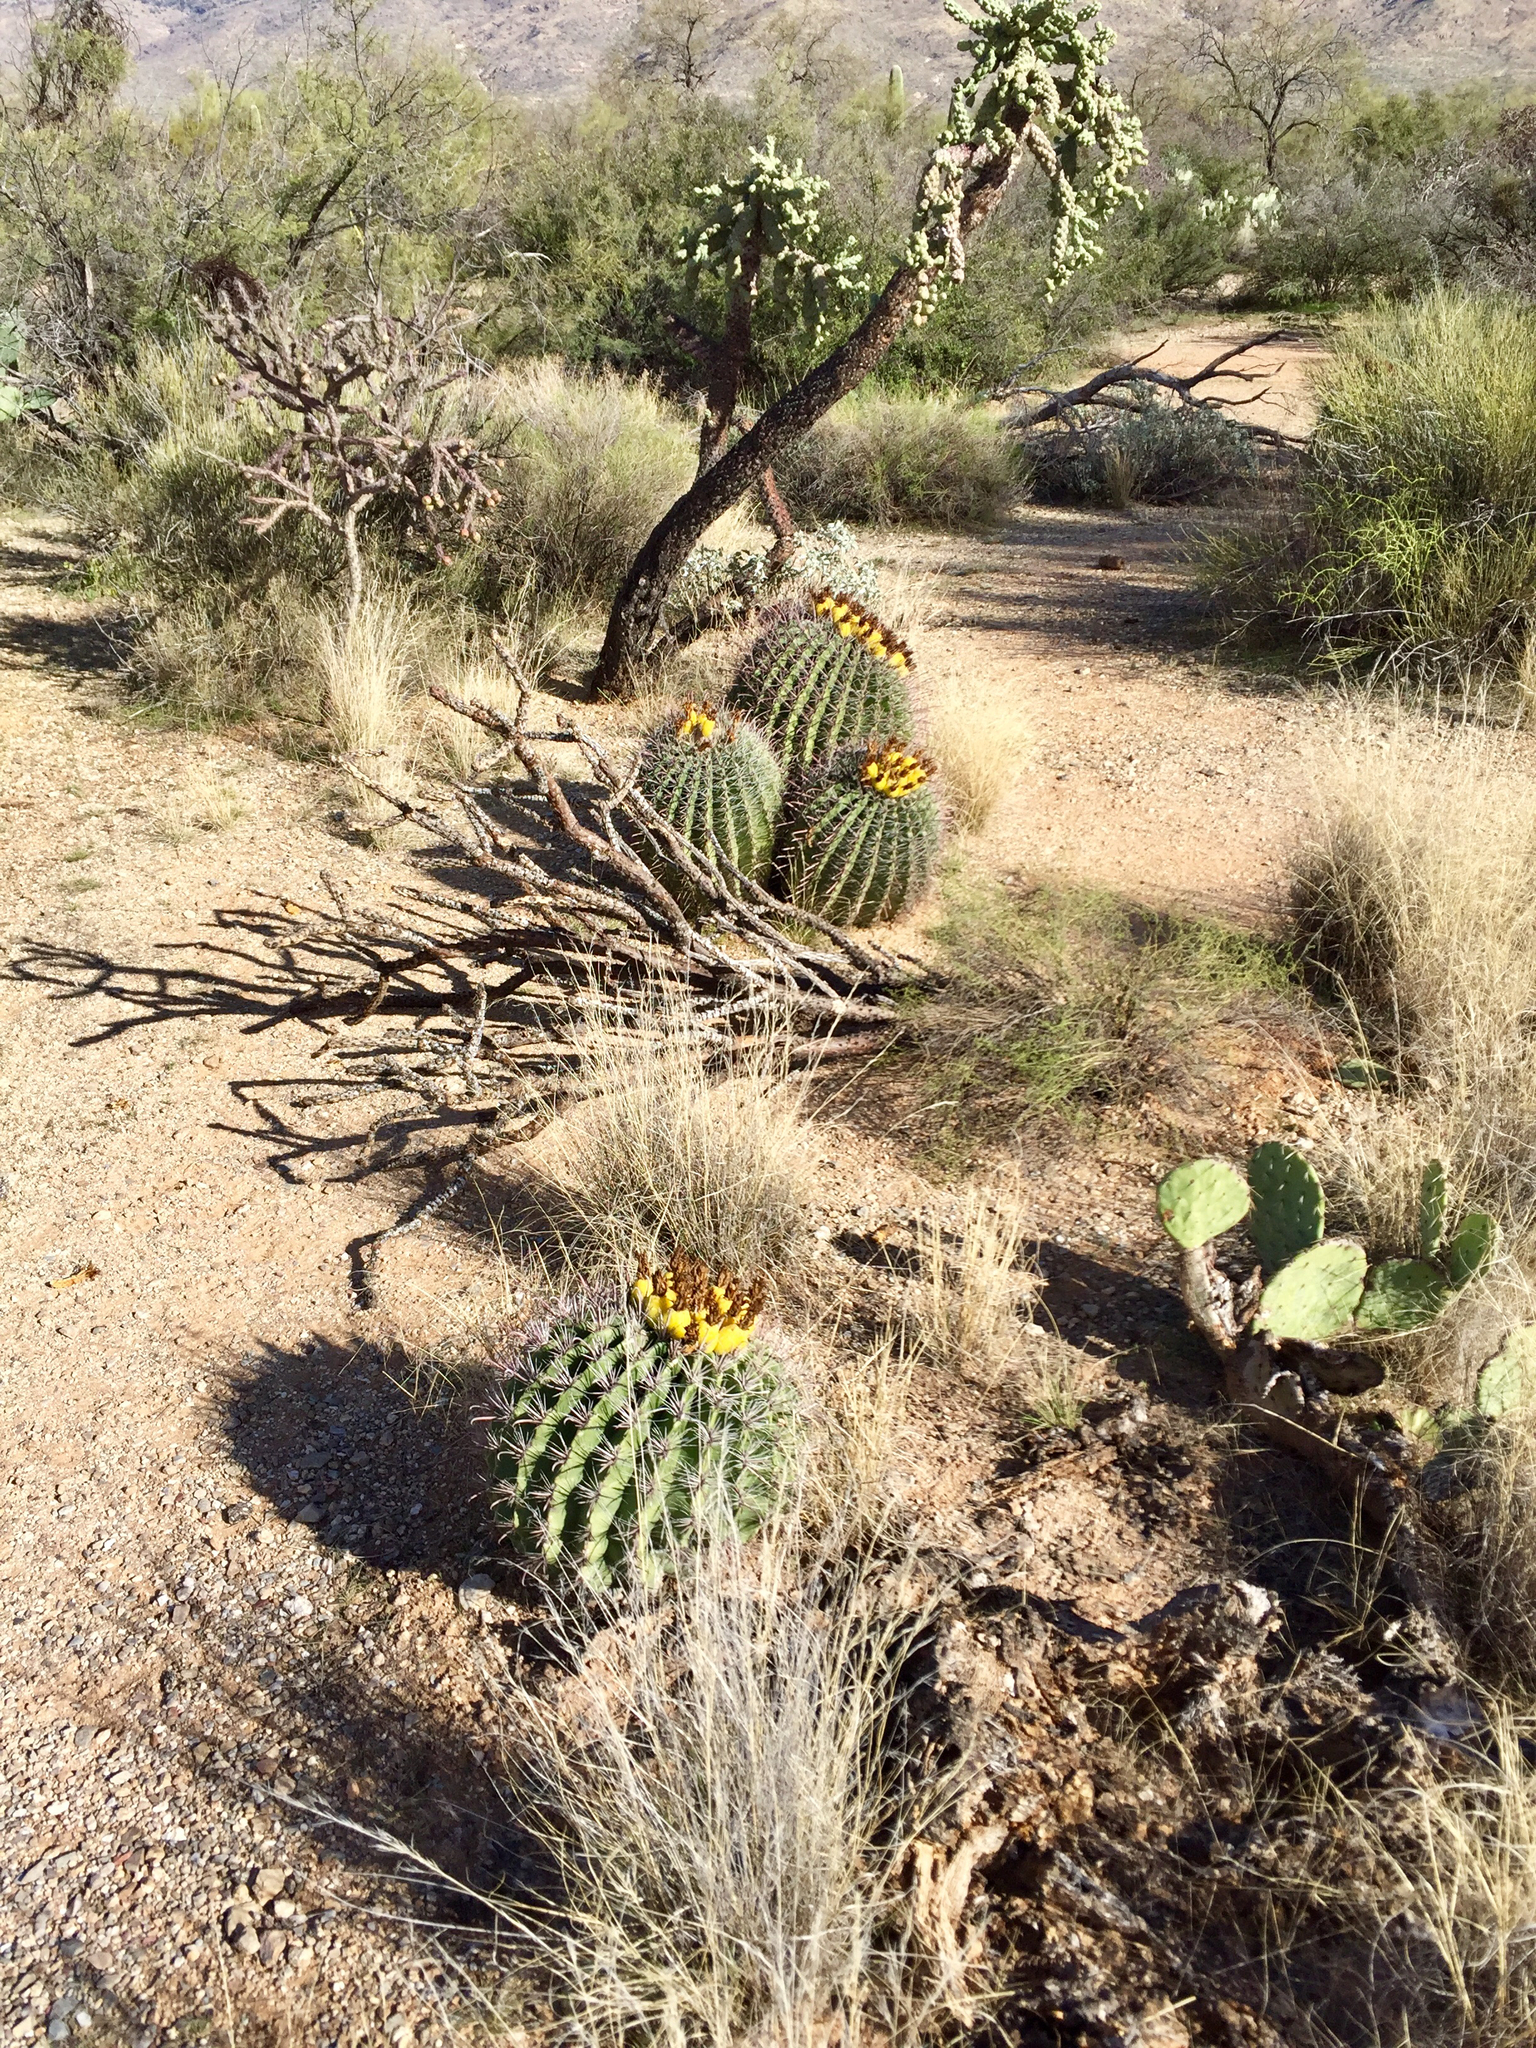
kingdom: Plantae
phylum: Tracheophyta
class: Magnoliopsida
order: Caryophyllales
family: Cactaceae
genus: Ferocactus
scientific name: Ferocactus wislizeni
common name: Candy barrel cactus
